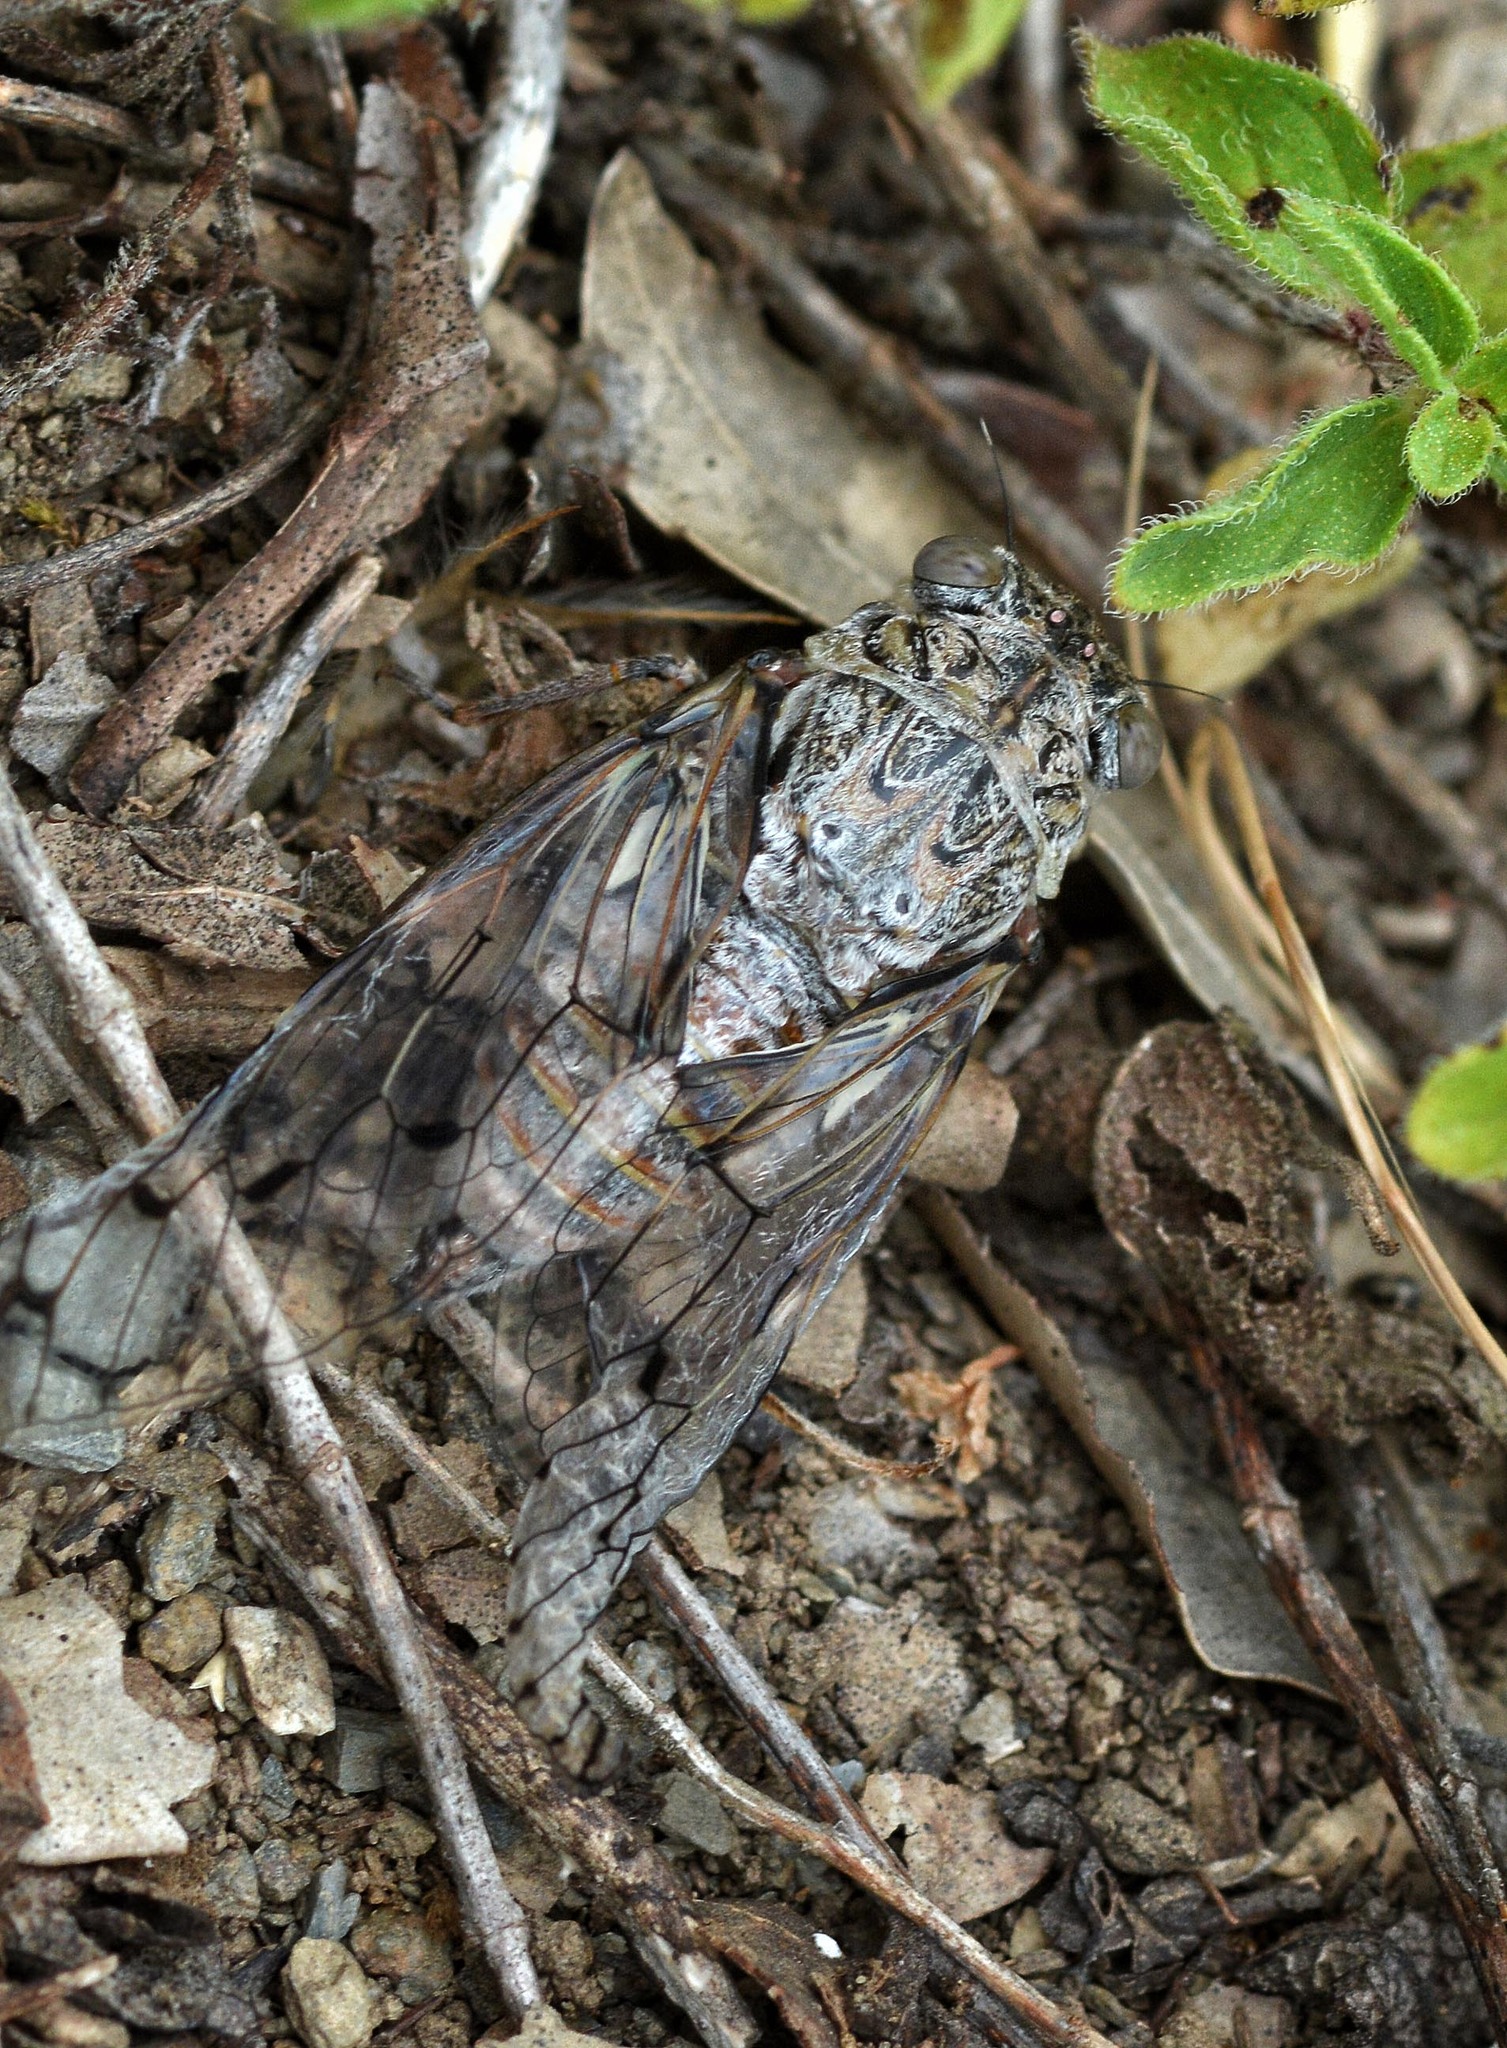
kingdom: Animalia
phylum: Arthropoda
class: Insecta
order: Hemiptera
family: Cicadidae
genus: Cicada
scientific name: Cicada orni
